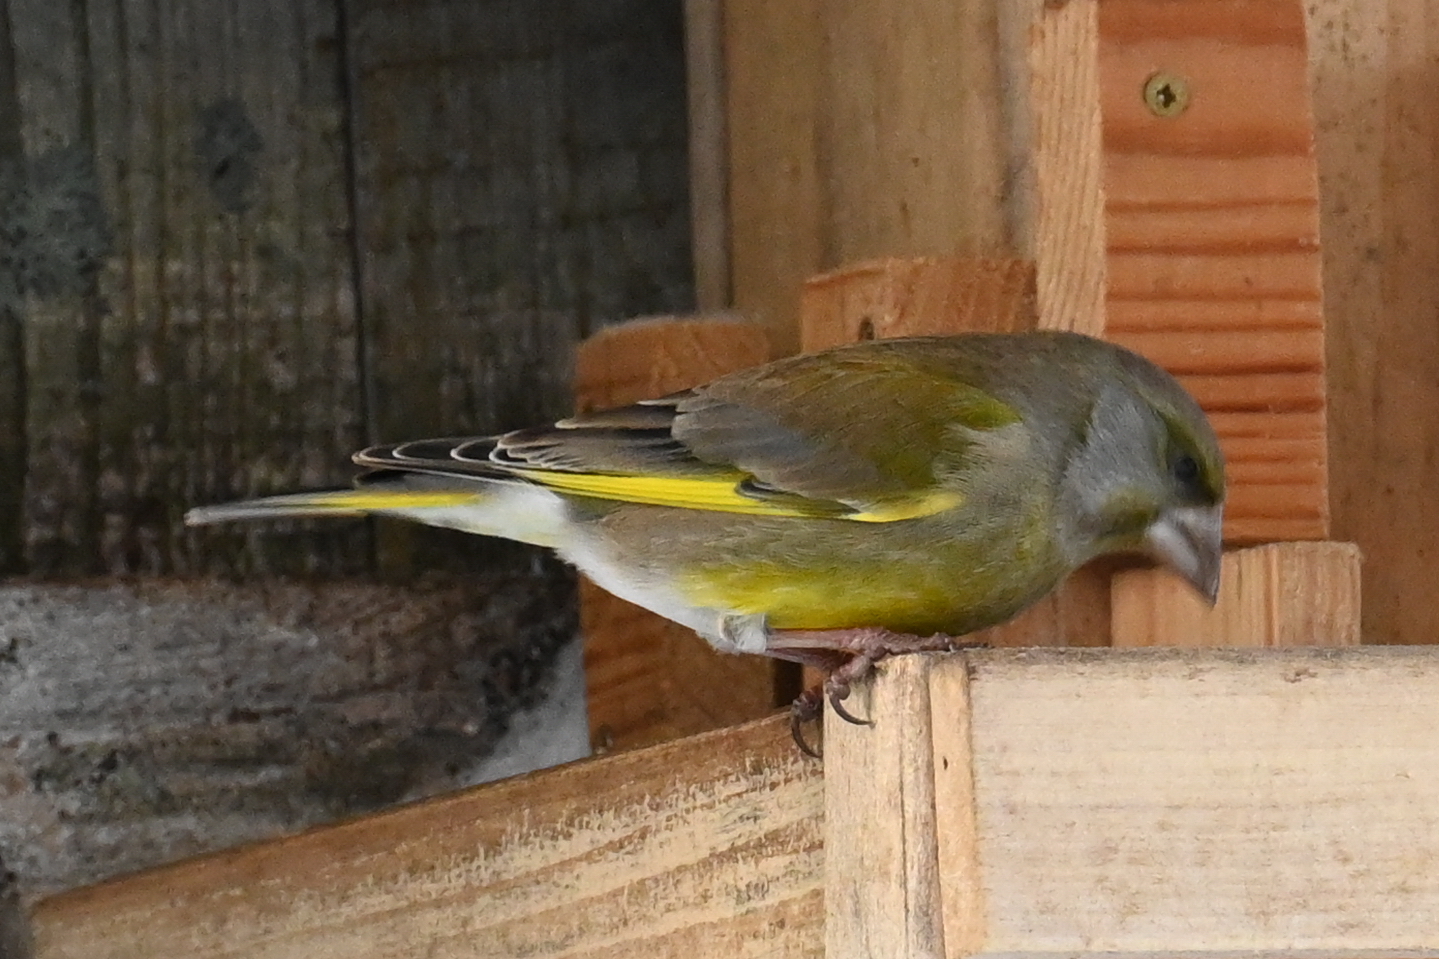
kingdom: Plantae
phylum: Tracheophyta
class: Liliopsida
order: Poales
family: Poaceae
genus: Chloris
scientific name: Chloris chloris
